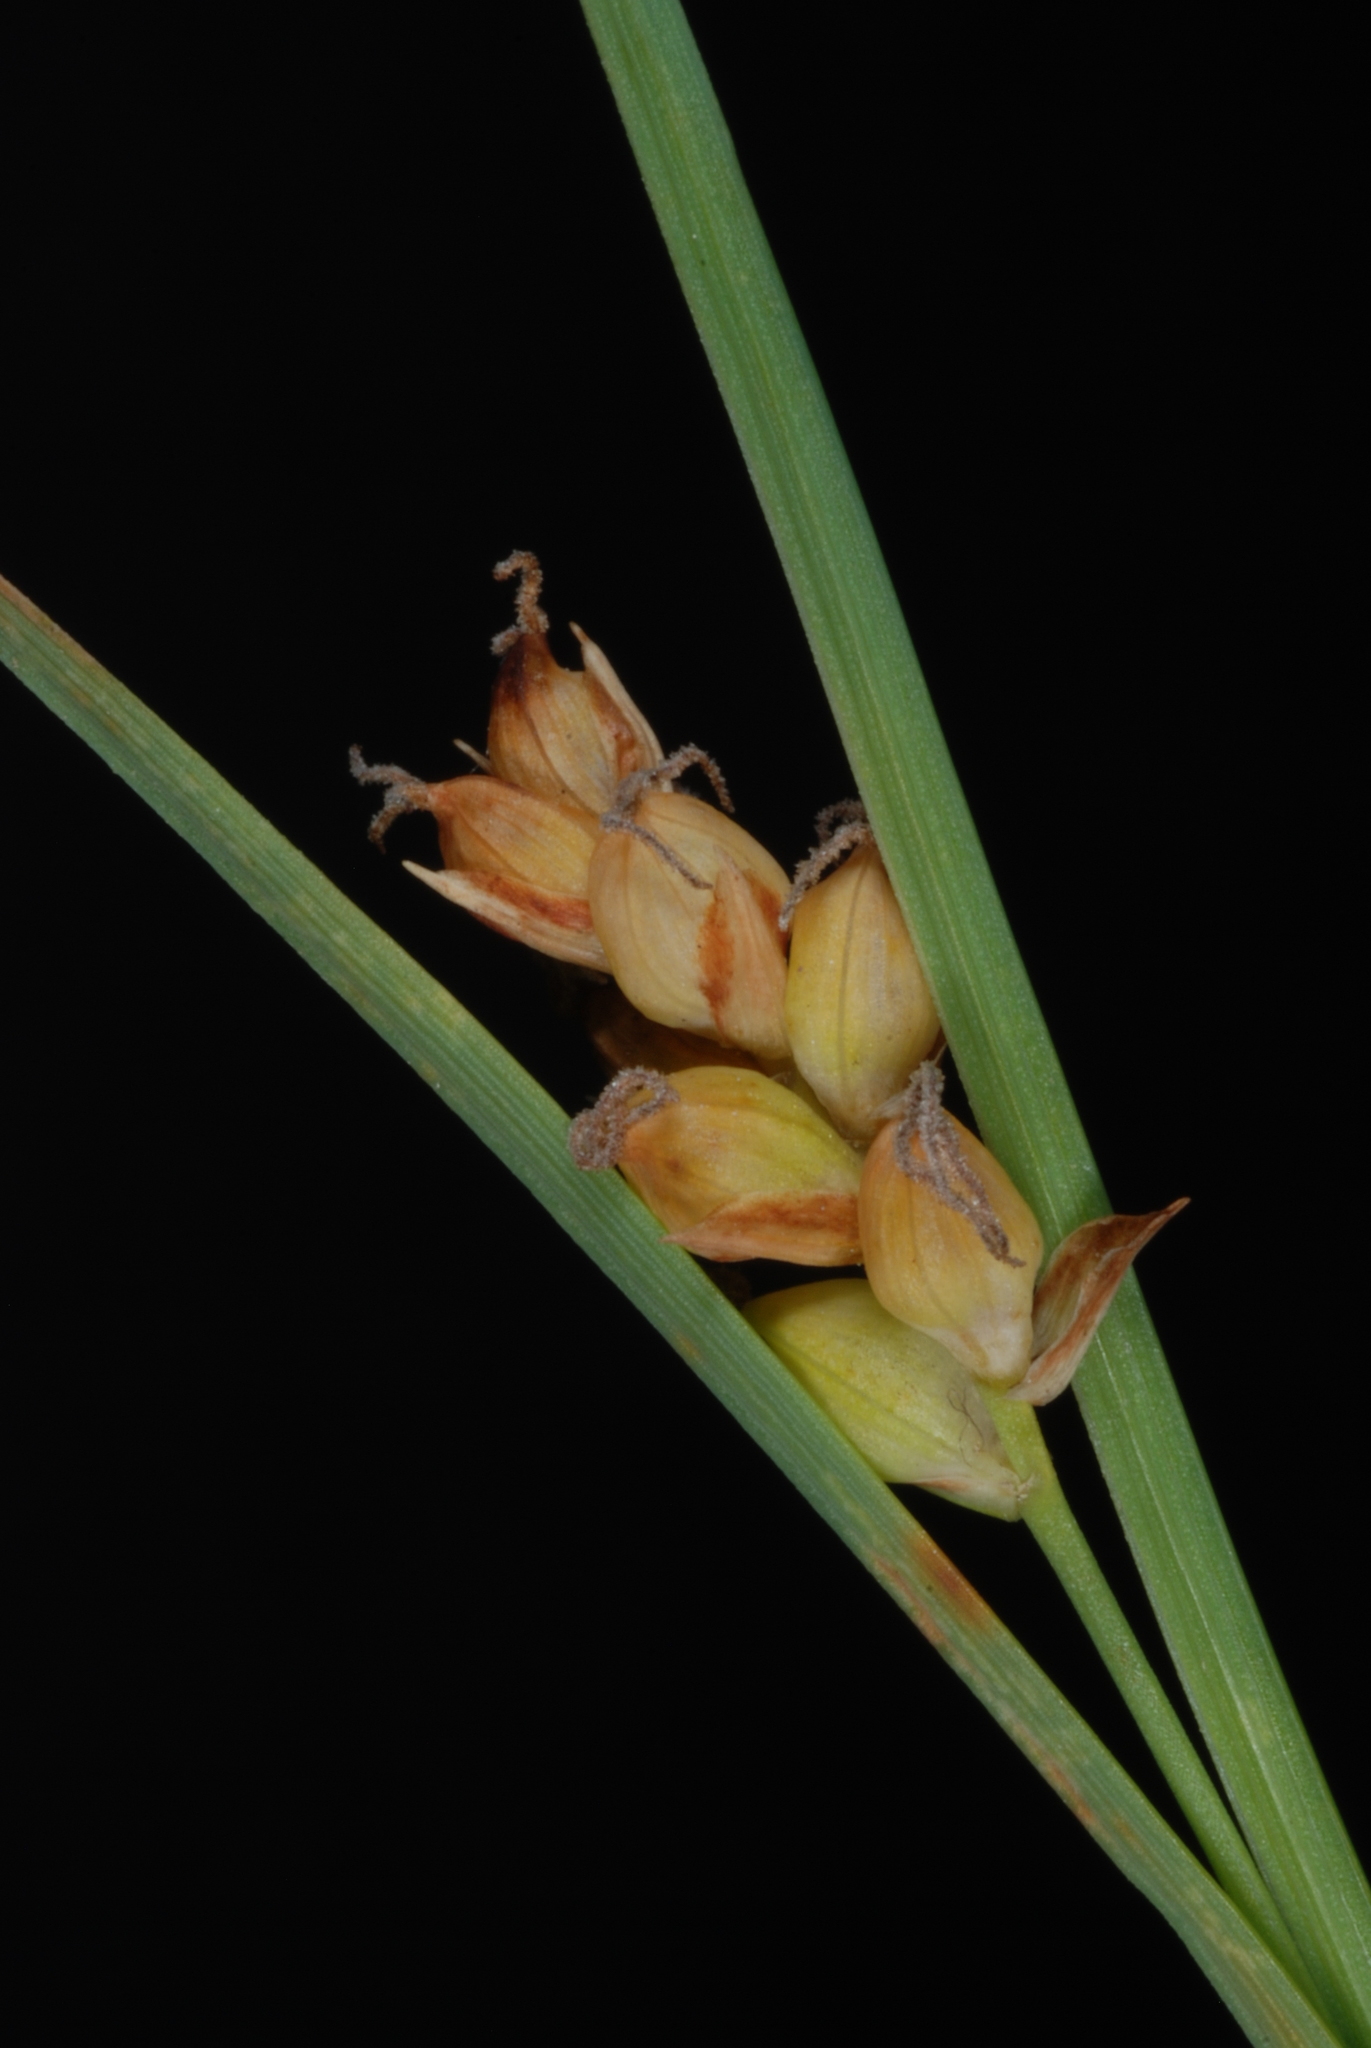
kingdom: Plantae
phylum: Tracheophyta
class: Liliopsida
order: Poales
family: Cyperaceae
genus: Carex
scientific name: Carex meadii
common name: Mead's sedge
